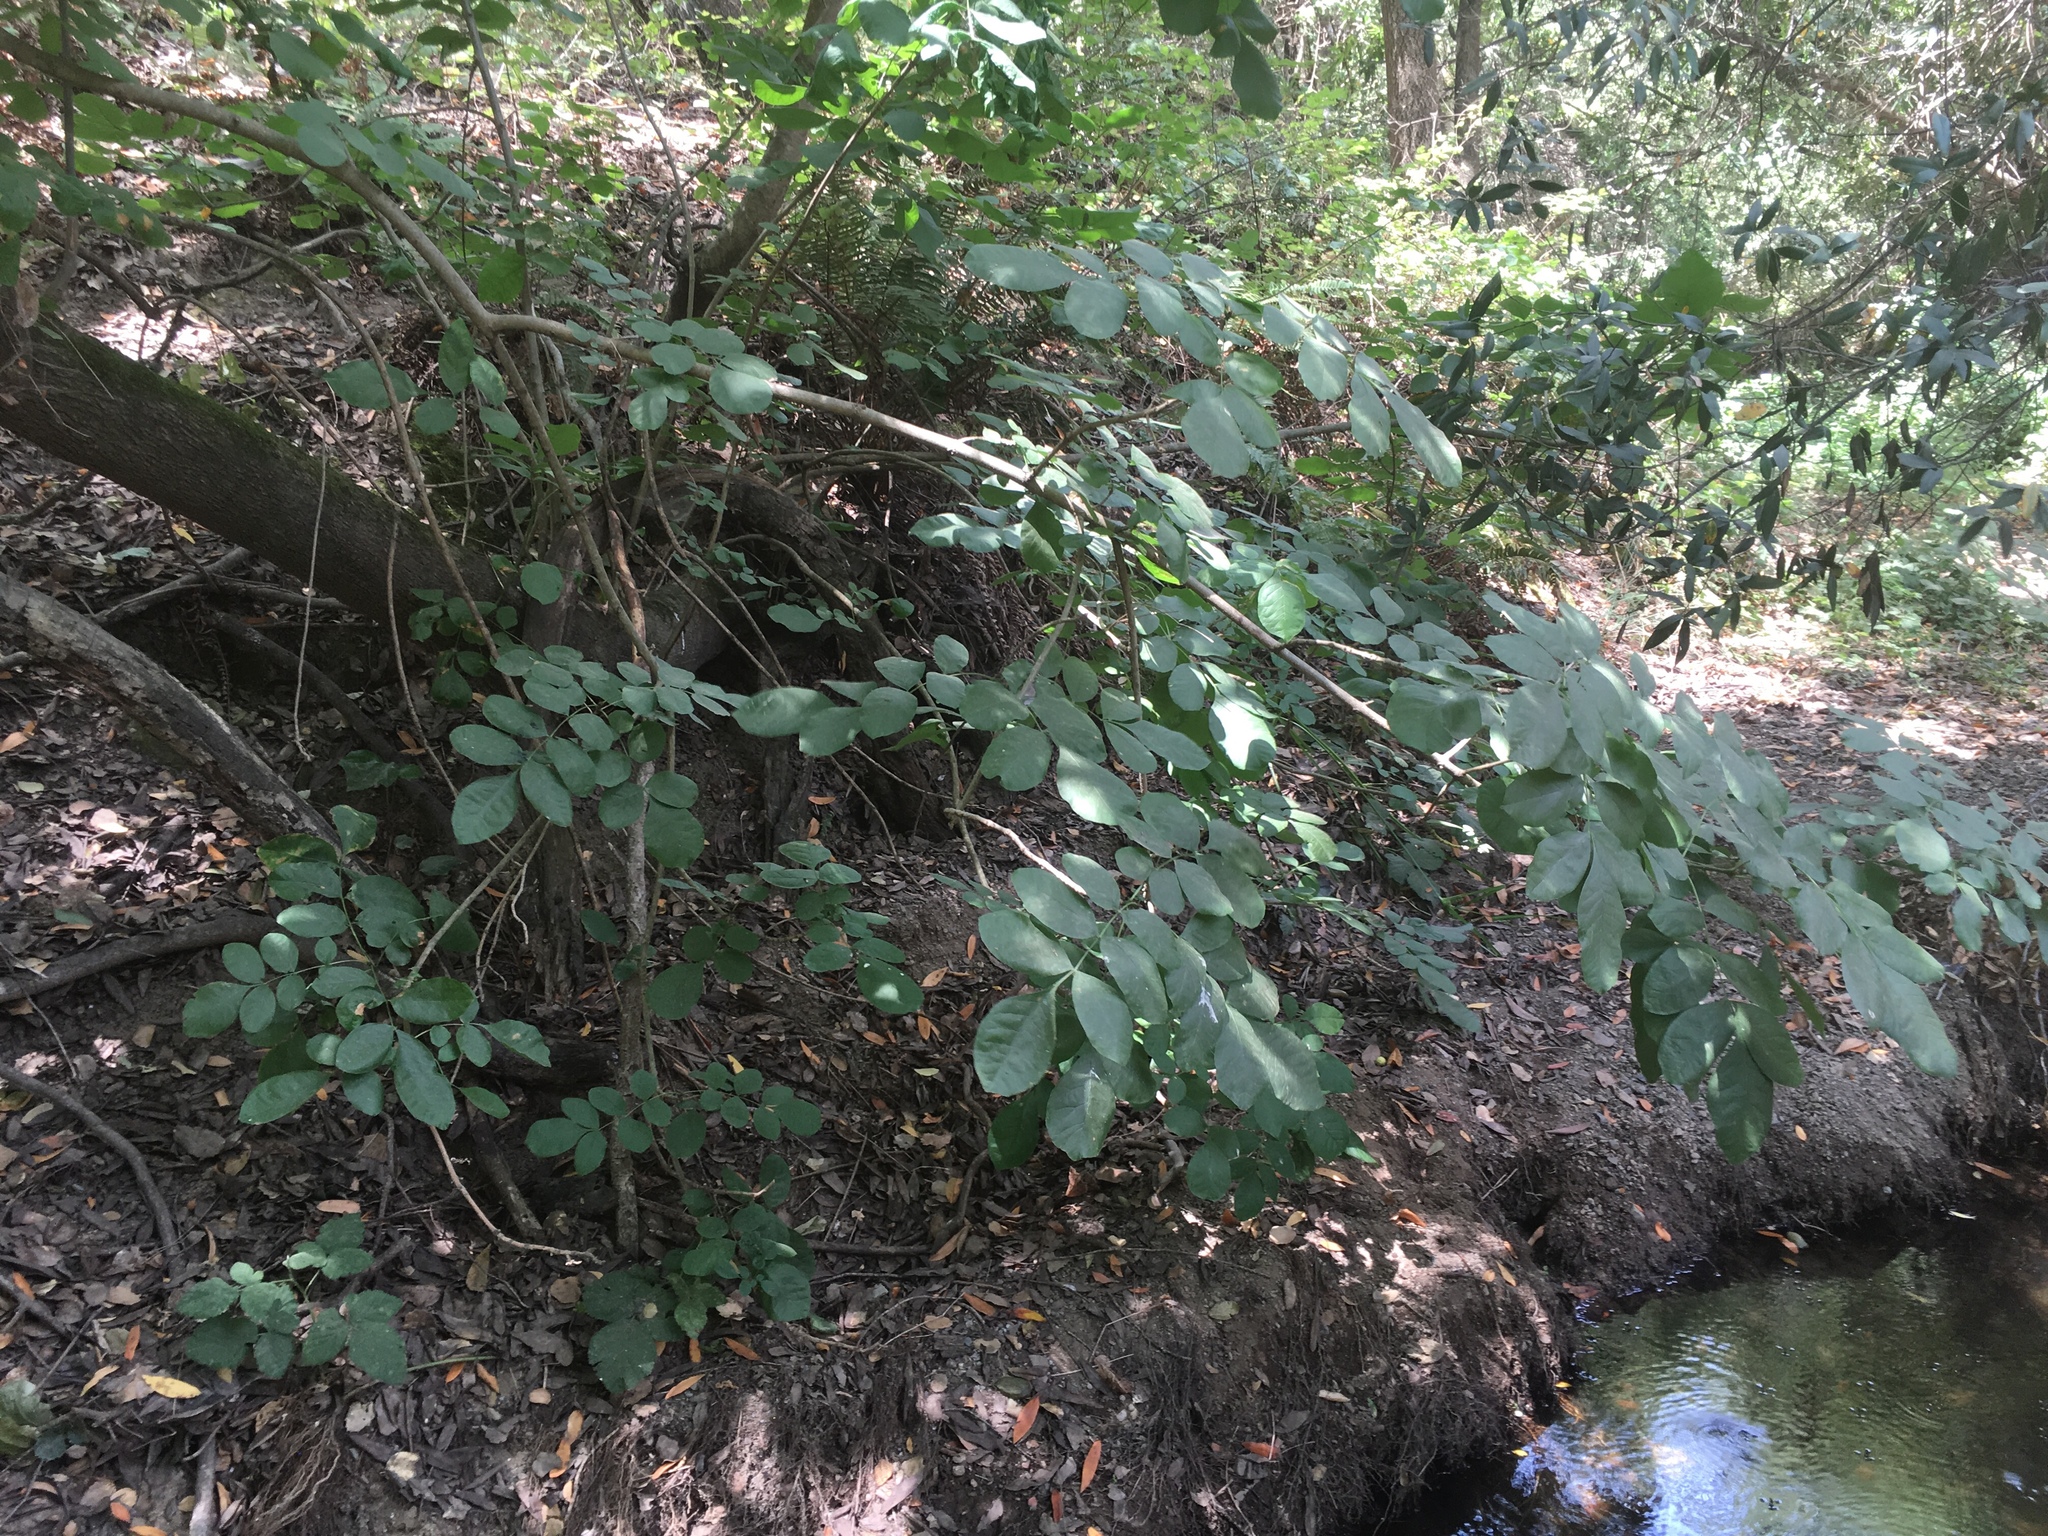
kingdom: Plantae
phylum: Tracheophyta
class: Magnoliopsida
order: Lamiales
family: Oleaceae
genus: Fraxinus
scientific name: Fraxinus latifolia
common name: Oregon ash
